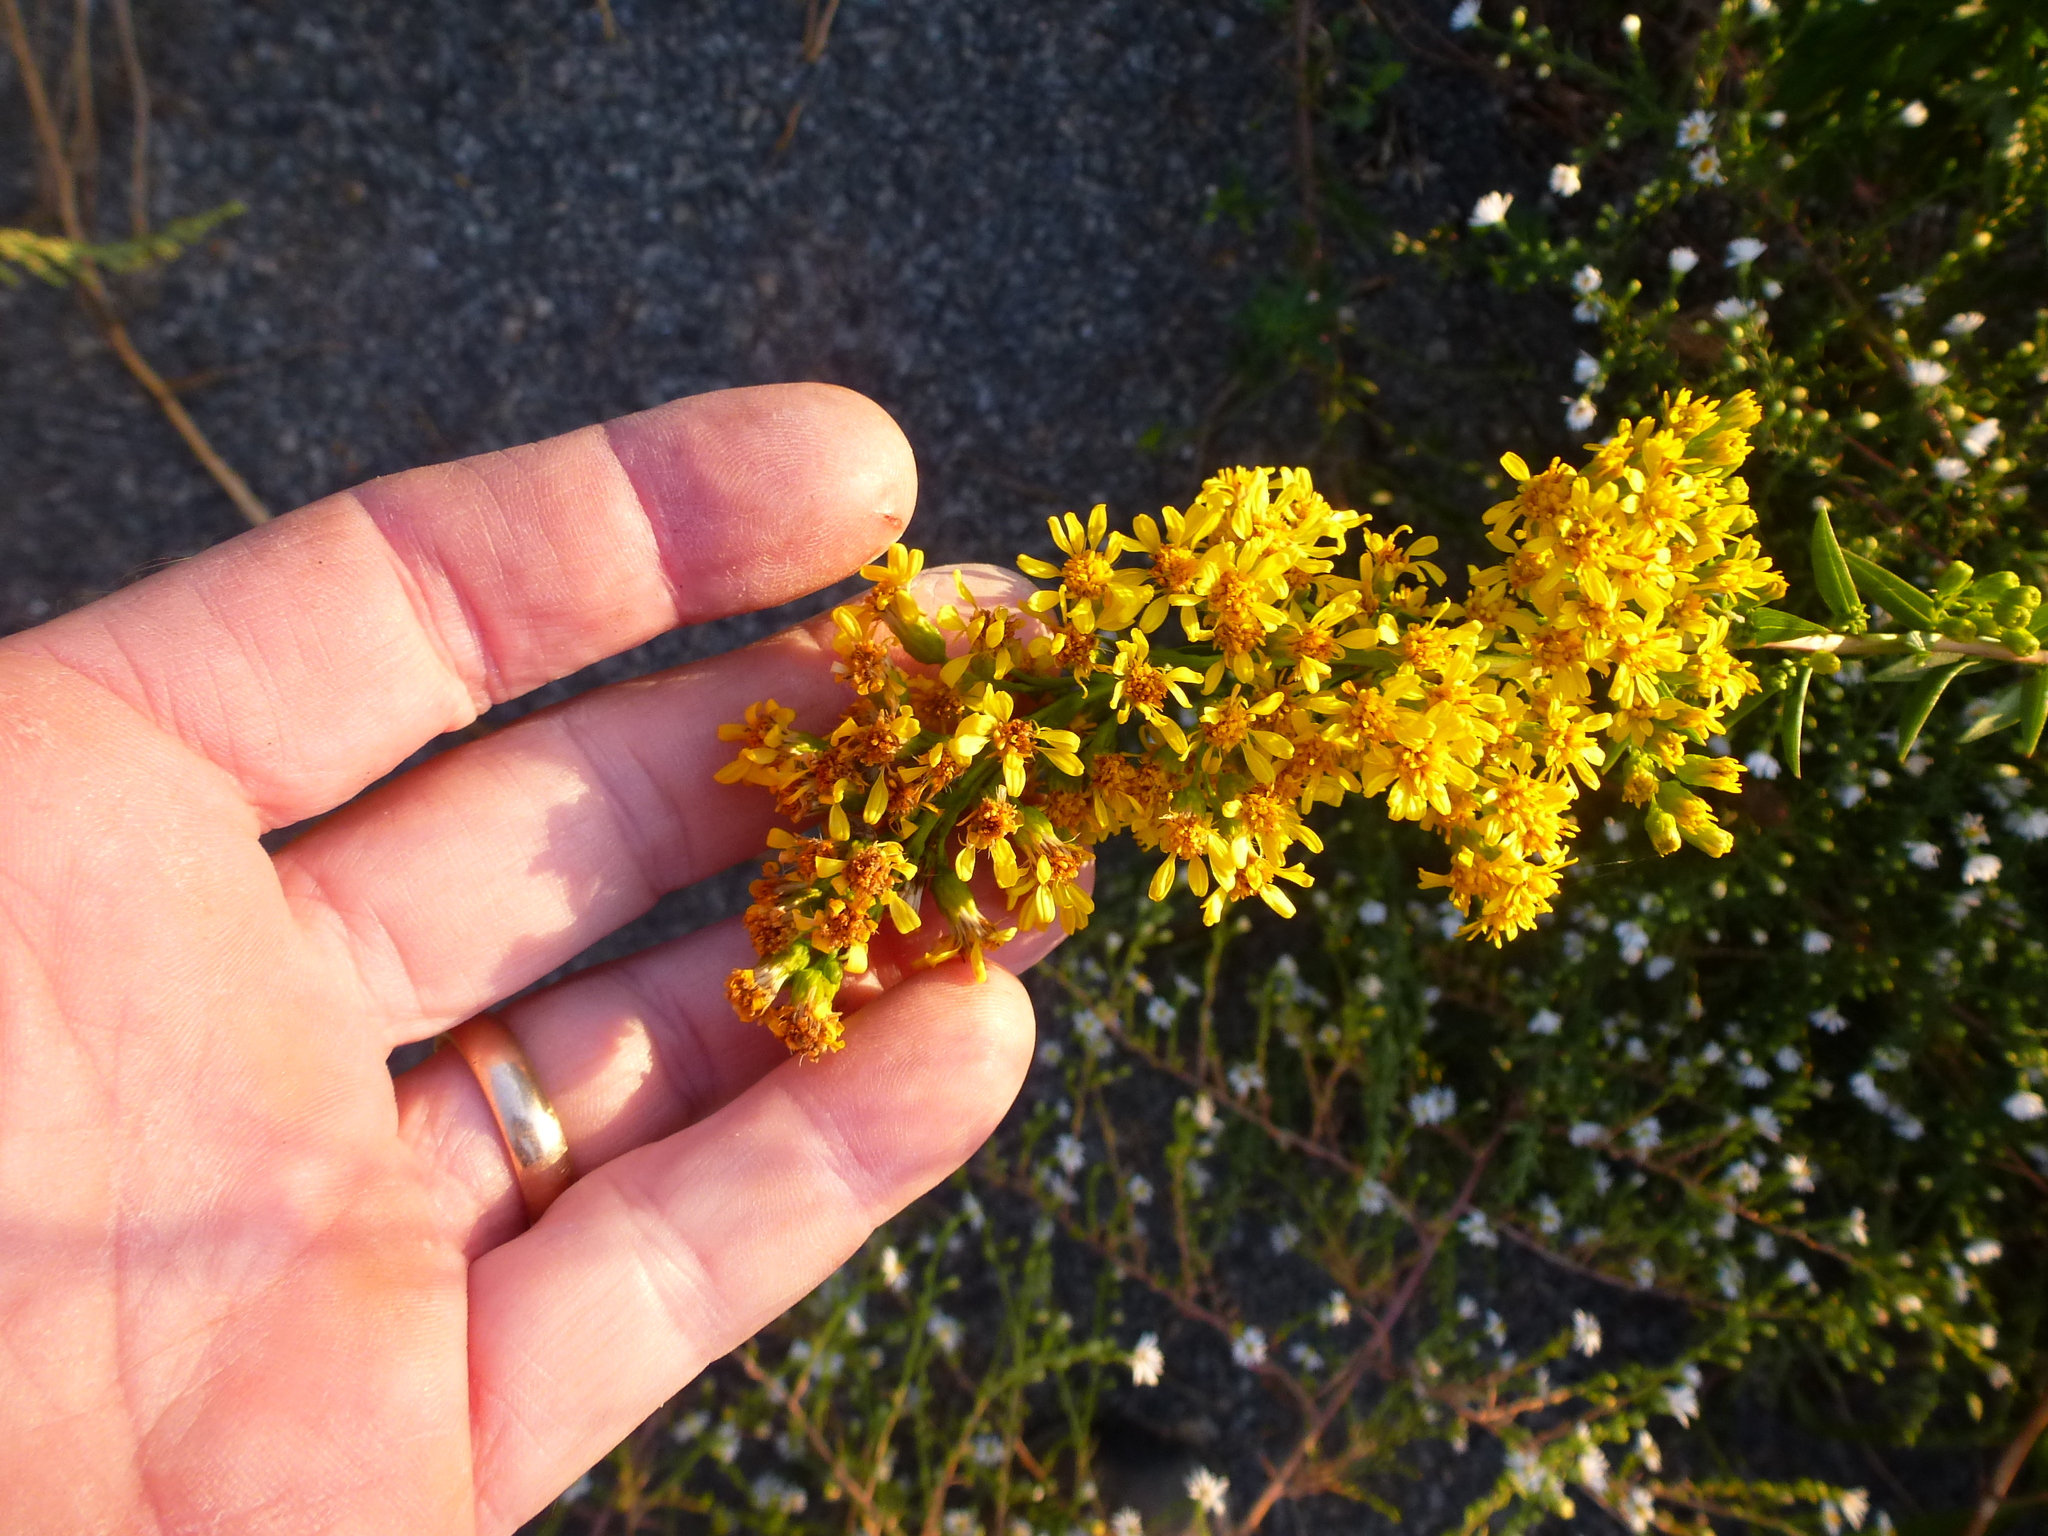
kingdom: Plantae
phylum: Tracheophyta
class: Magnoliopsida
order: Asterales
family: Asteraceae
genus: Solidago
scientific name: Solidago sempervirens
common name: Salt-marsh goldenrod
